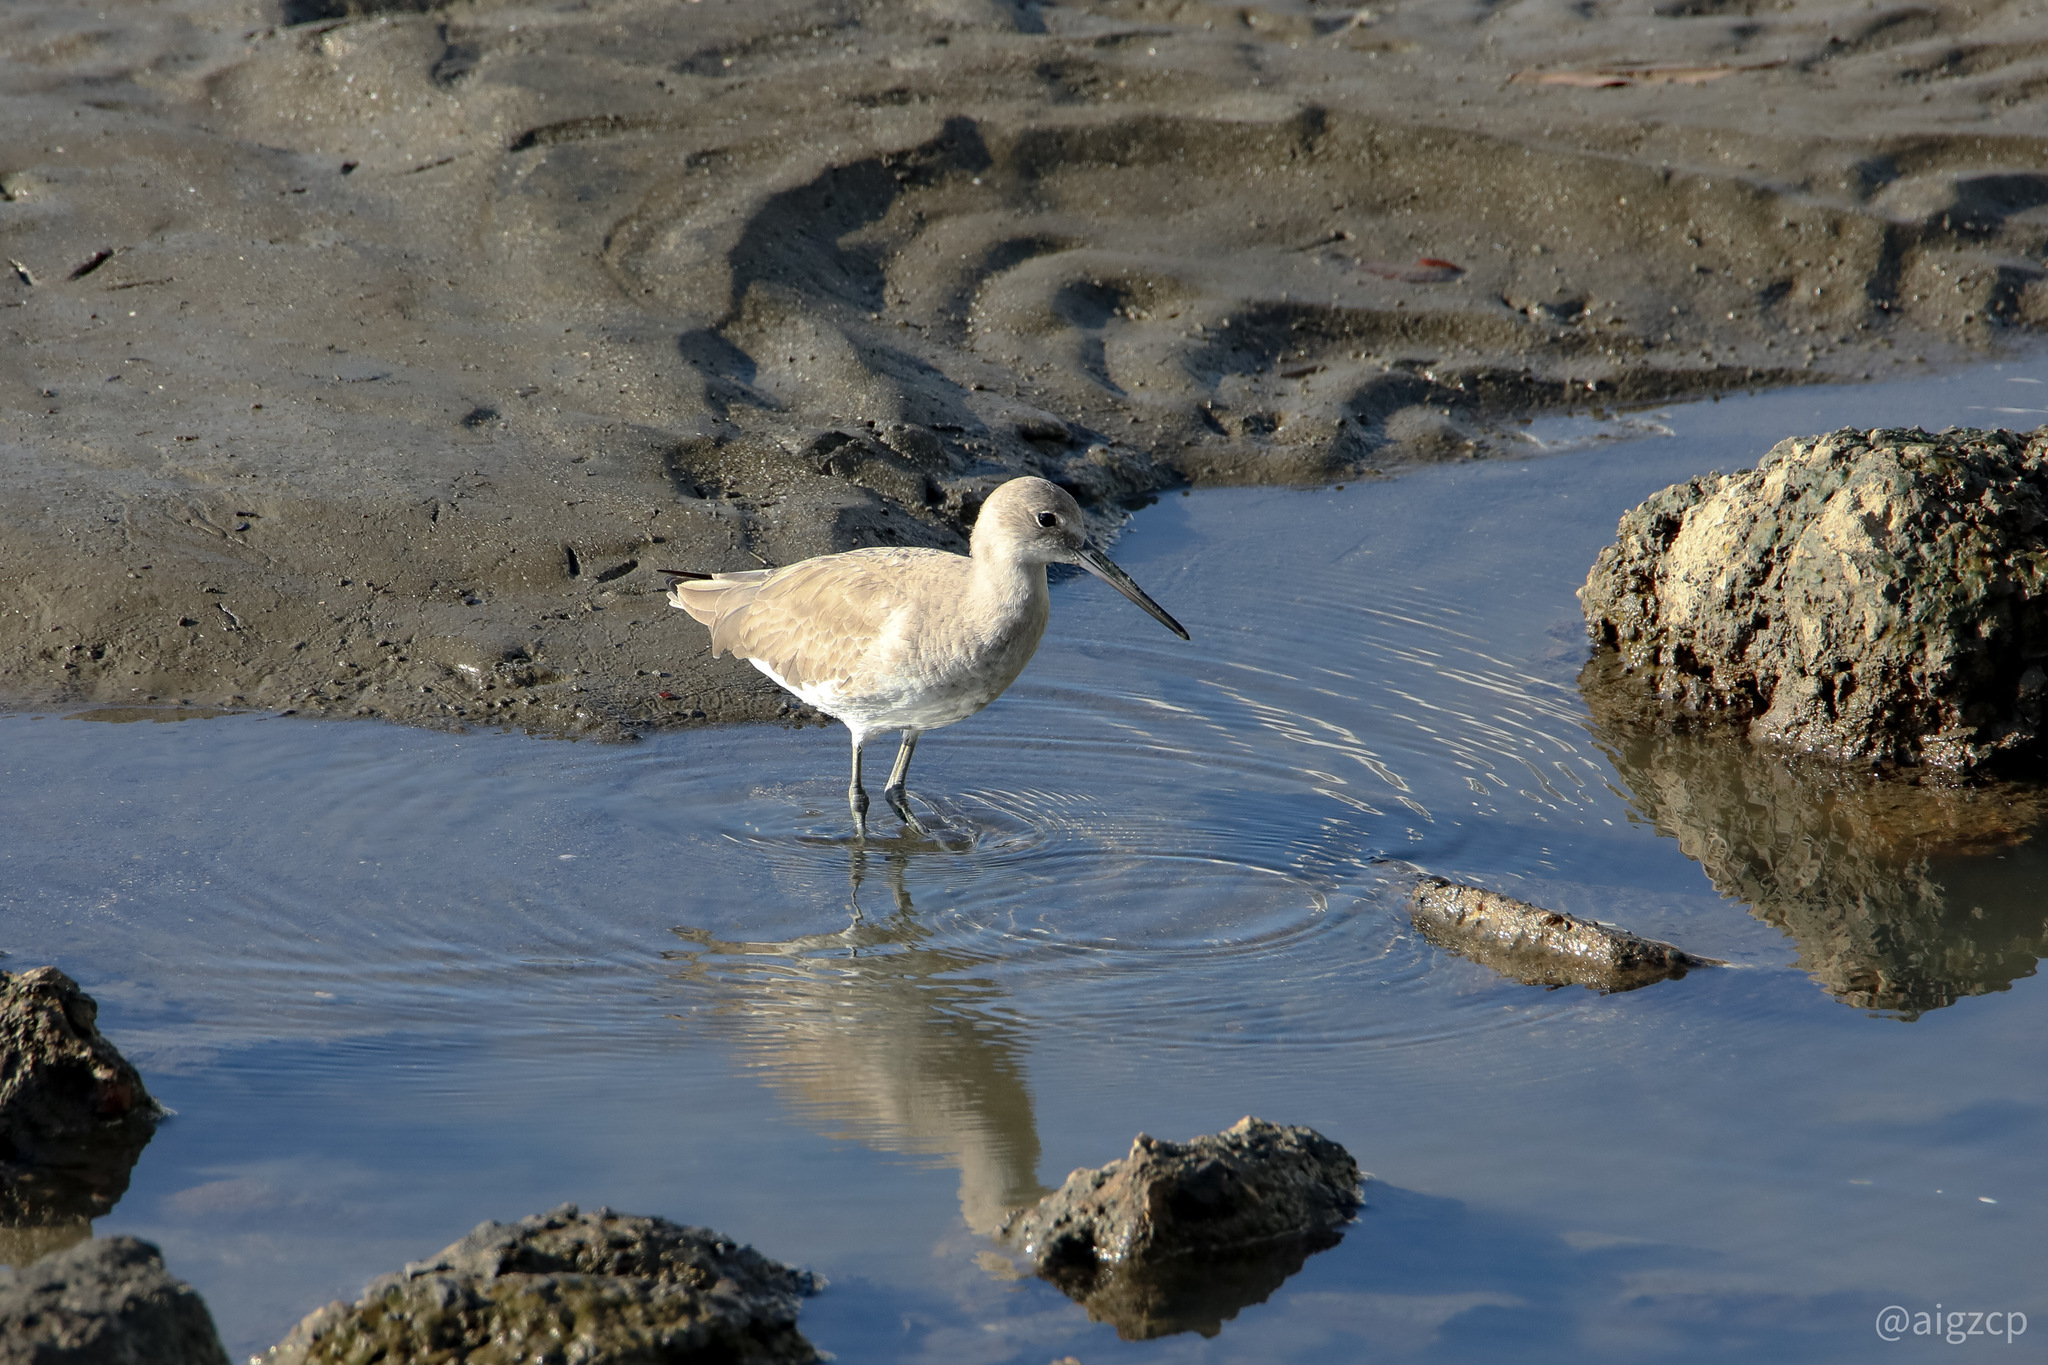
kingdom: Animalia
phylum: Chordata
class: Aves
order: Charadriiformes
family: Scolopacidae
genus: Tringa
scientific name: Tringa semipalmata
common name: Willet
